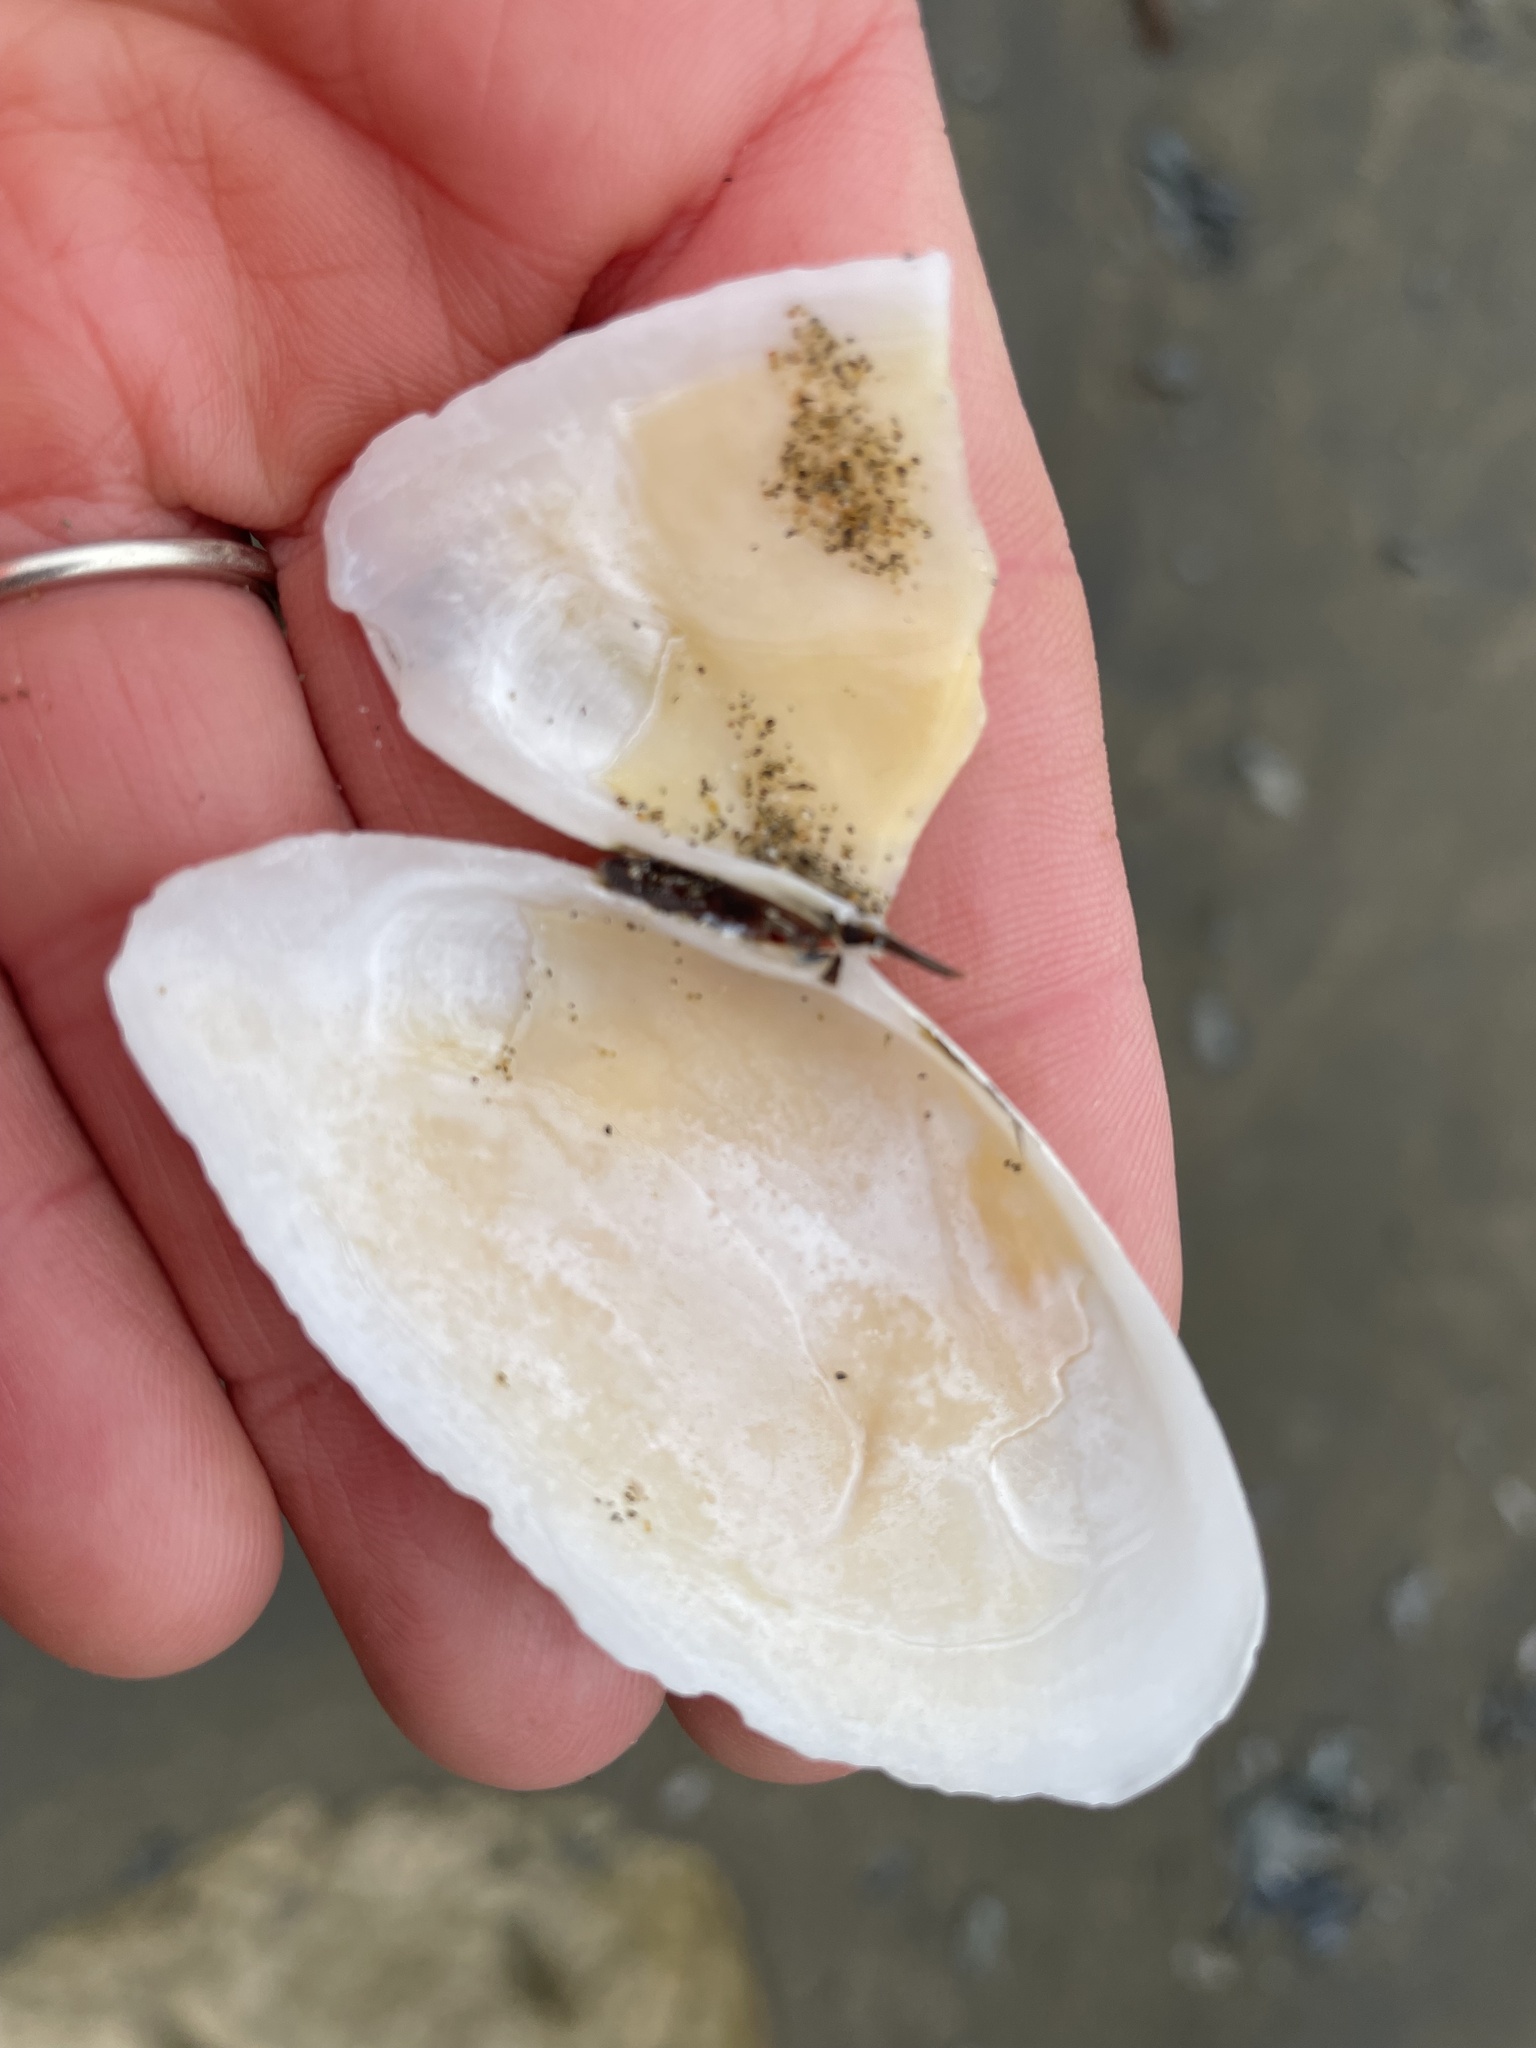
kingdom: Animalia
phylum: Mollusca
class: Bivalvia
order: Cardiida
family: Tellinidae
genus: Megangulus
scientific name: Megangulus bodegensis
